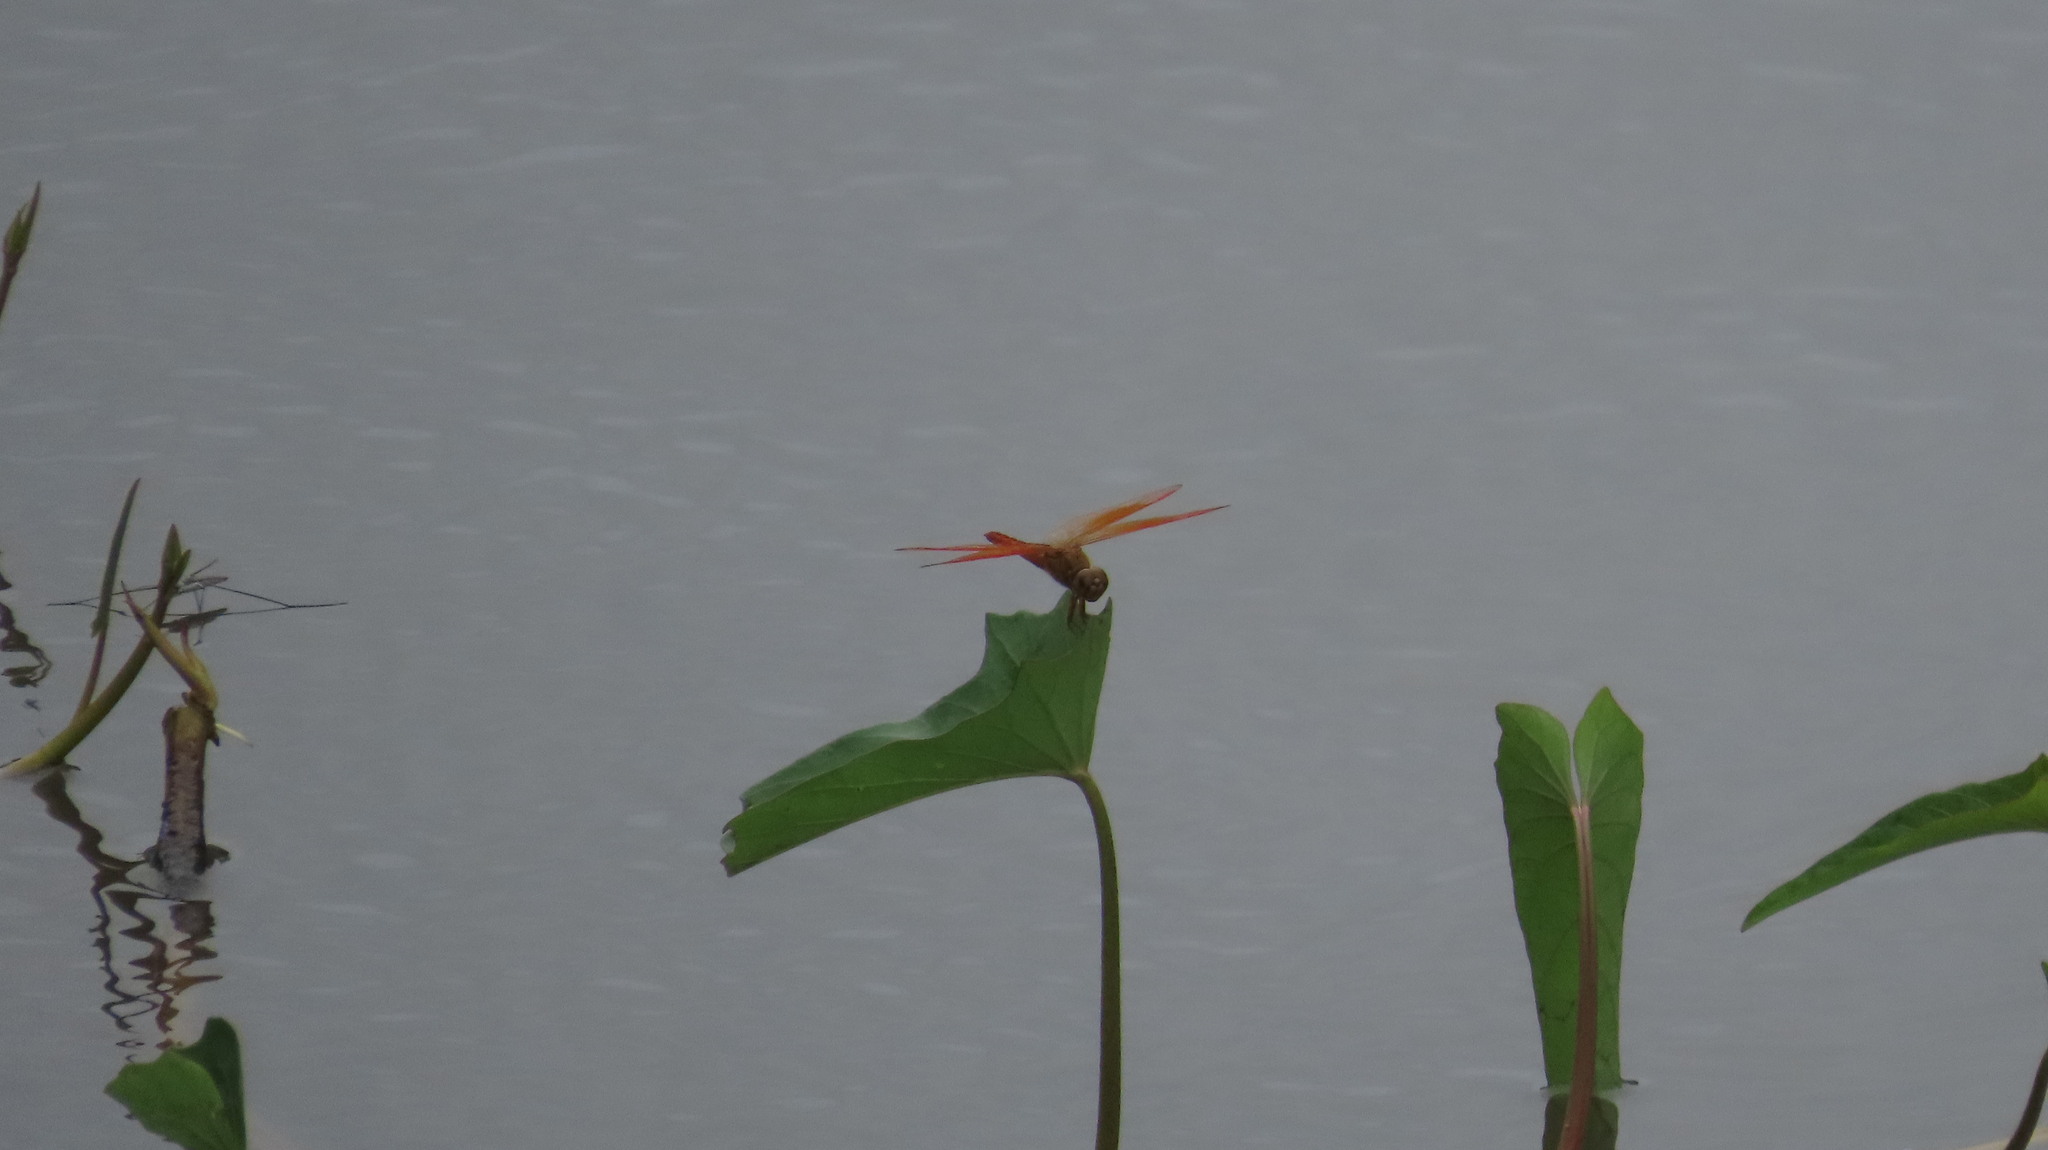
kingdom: Animalia
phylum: Arthropoda
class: Insecta
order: Odonata
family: Libellulidae
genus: Brachythemis
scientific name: Brachythemis contaminata
